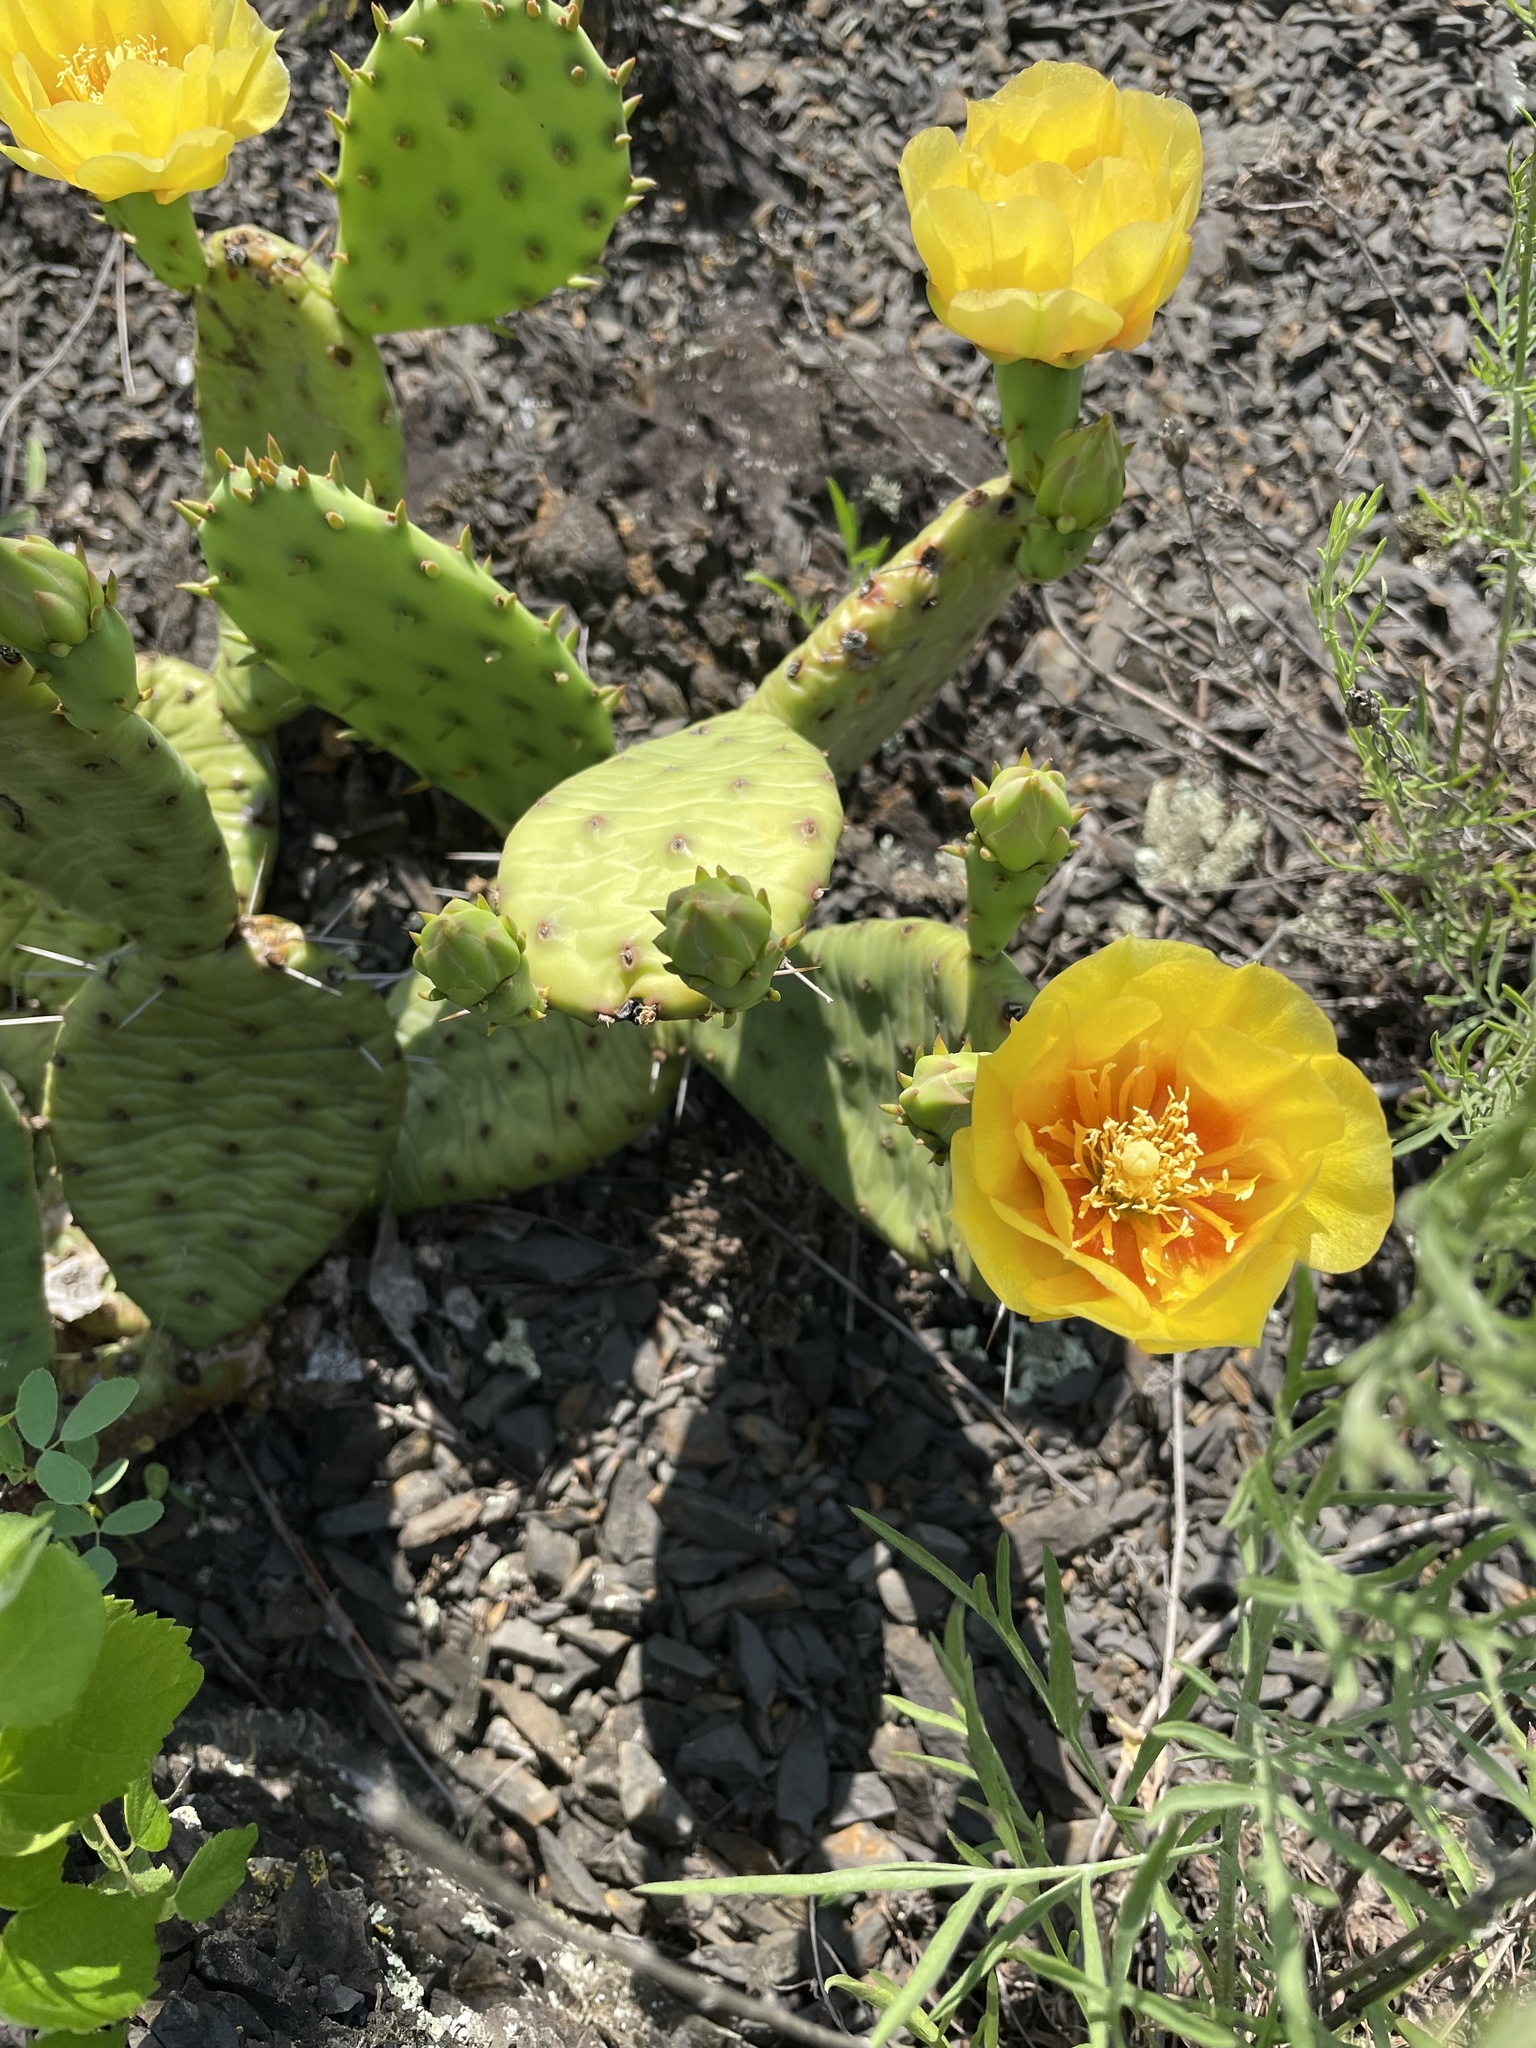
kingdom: Plantae
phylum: Tracheophyta
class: Magnoliopsida
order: Caryophyllales
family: Cactaceae
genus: Opuntia
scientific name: Opuntia humifusa
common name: Eastern prickly-pear
